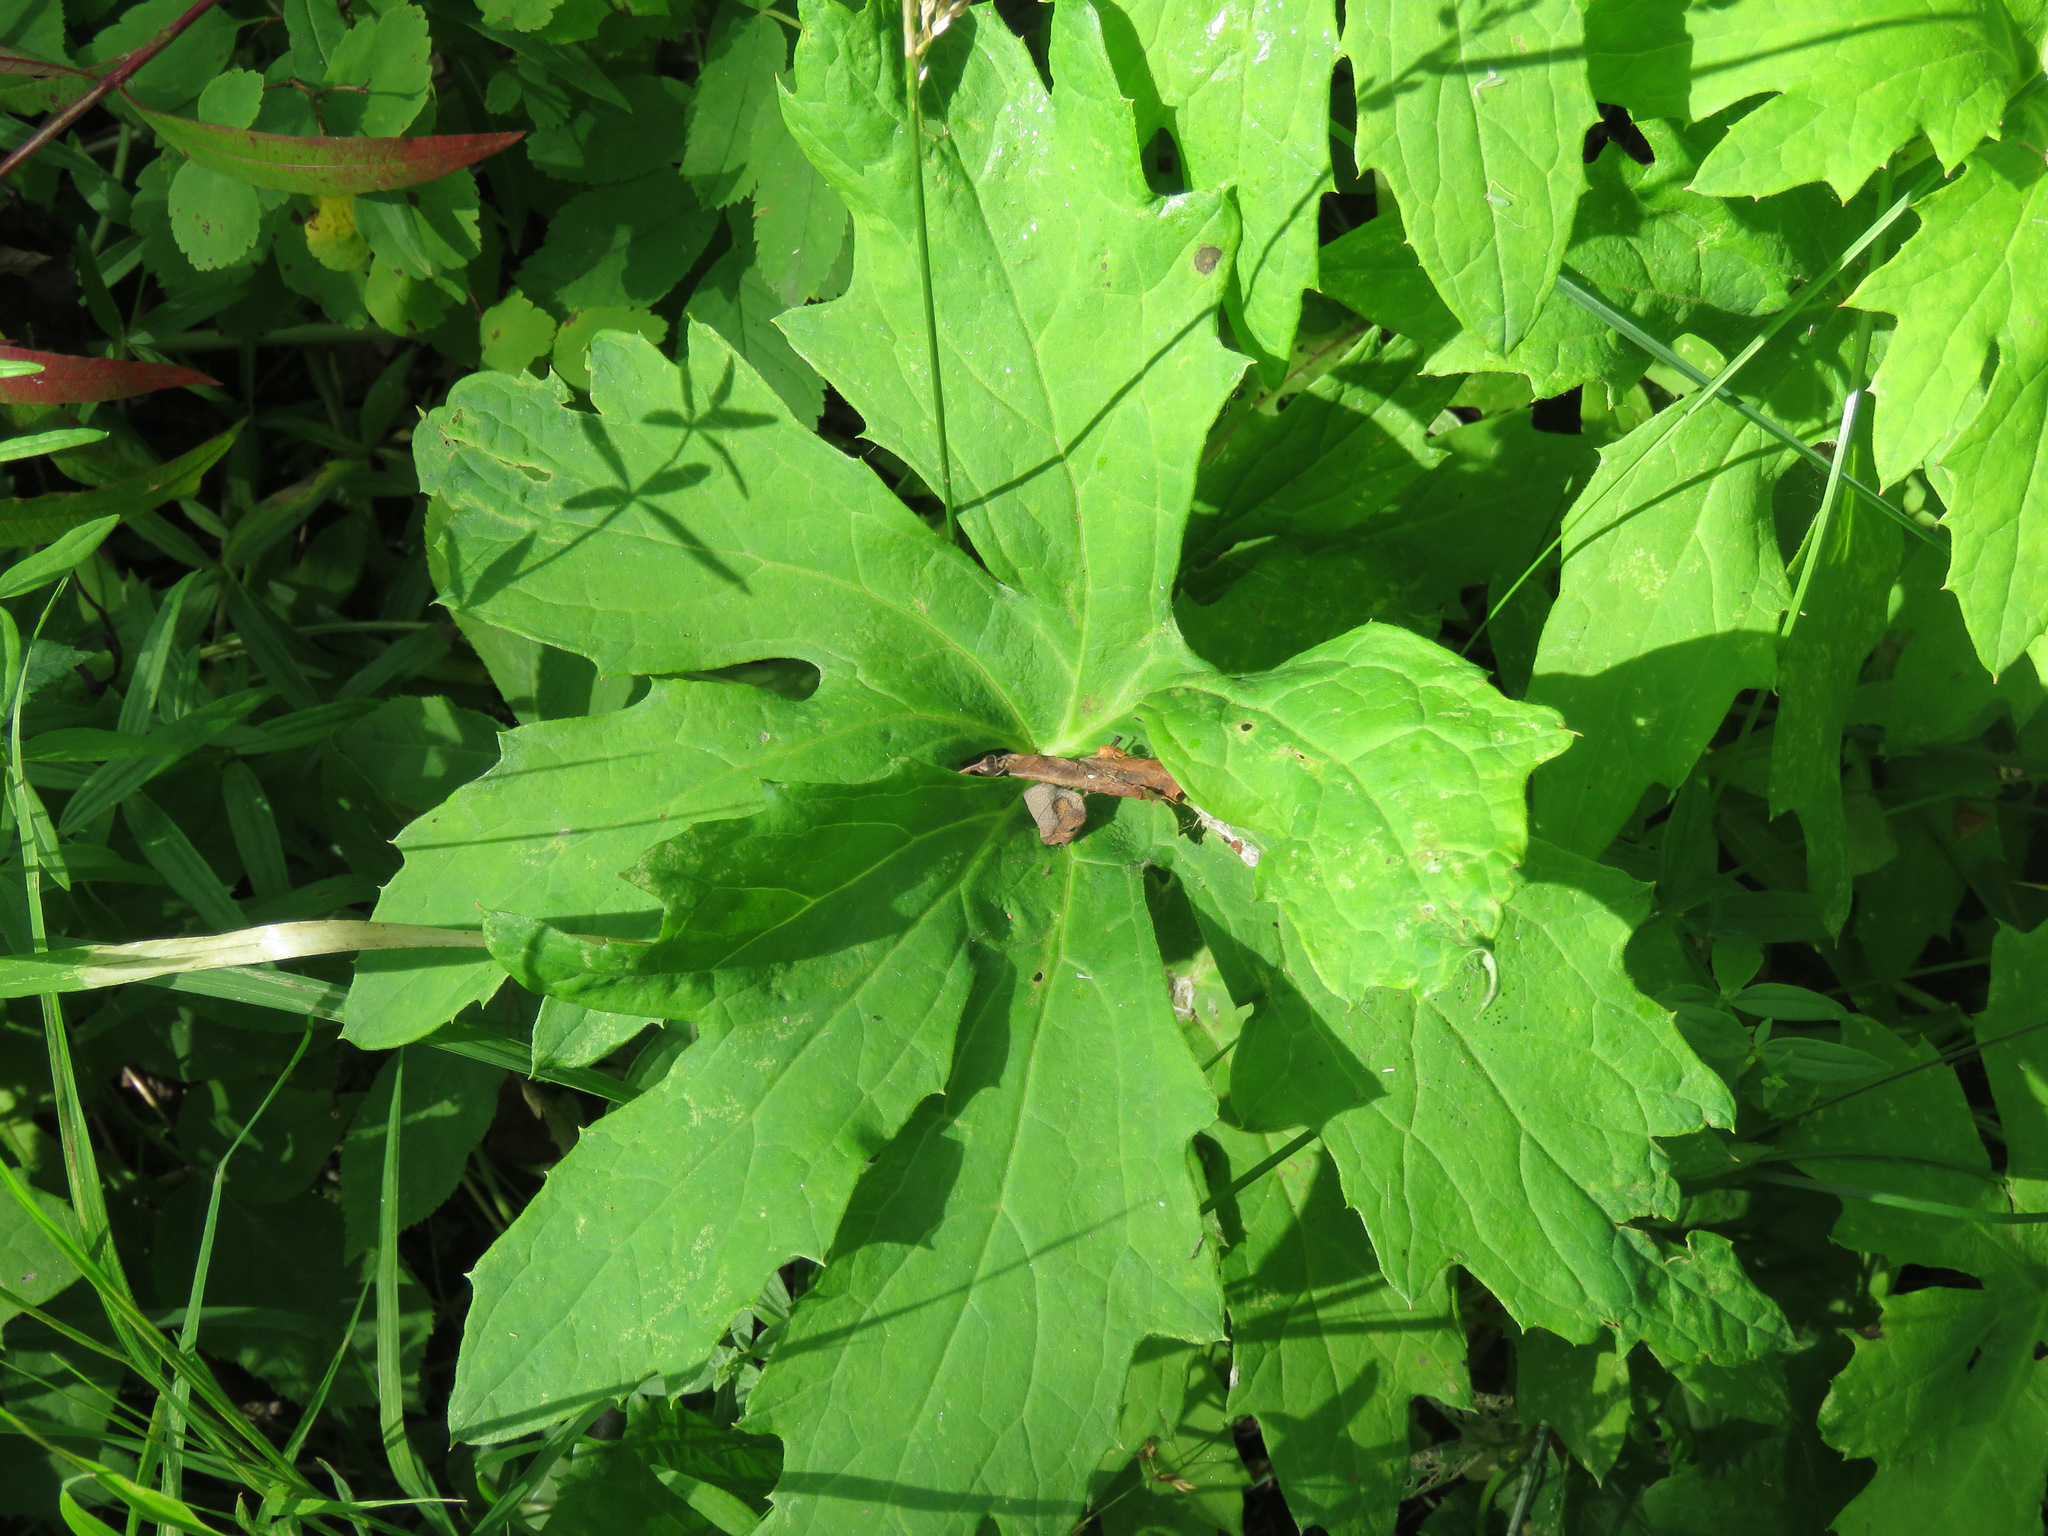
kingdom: Plantae
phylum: Tracheophyta
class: Magnoliopsida
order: Asterales
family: Asteraceae
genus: Petasites
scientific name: Petasites frigidus
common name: Arctic butterbur
